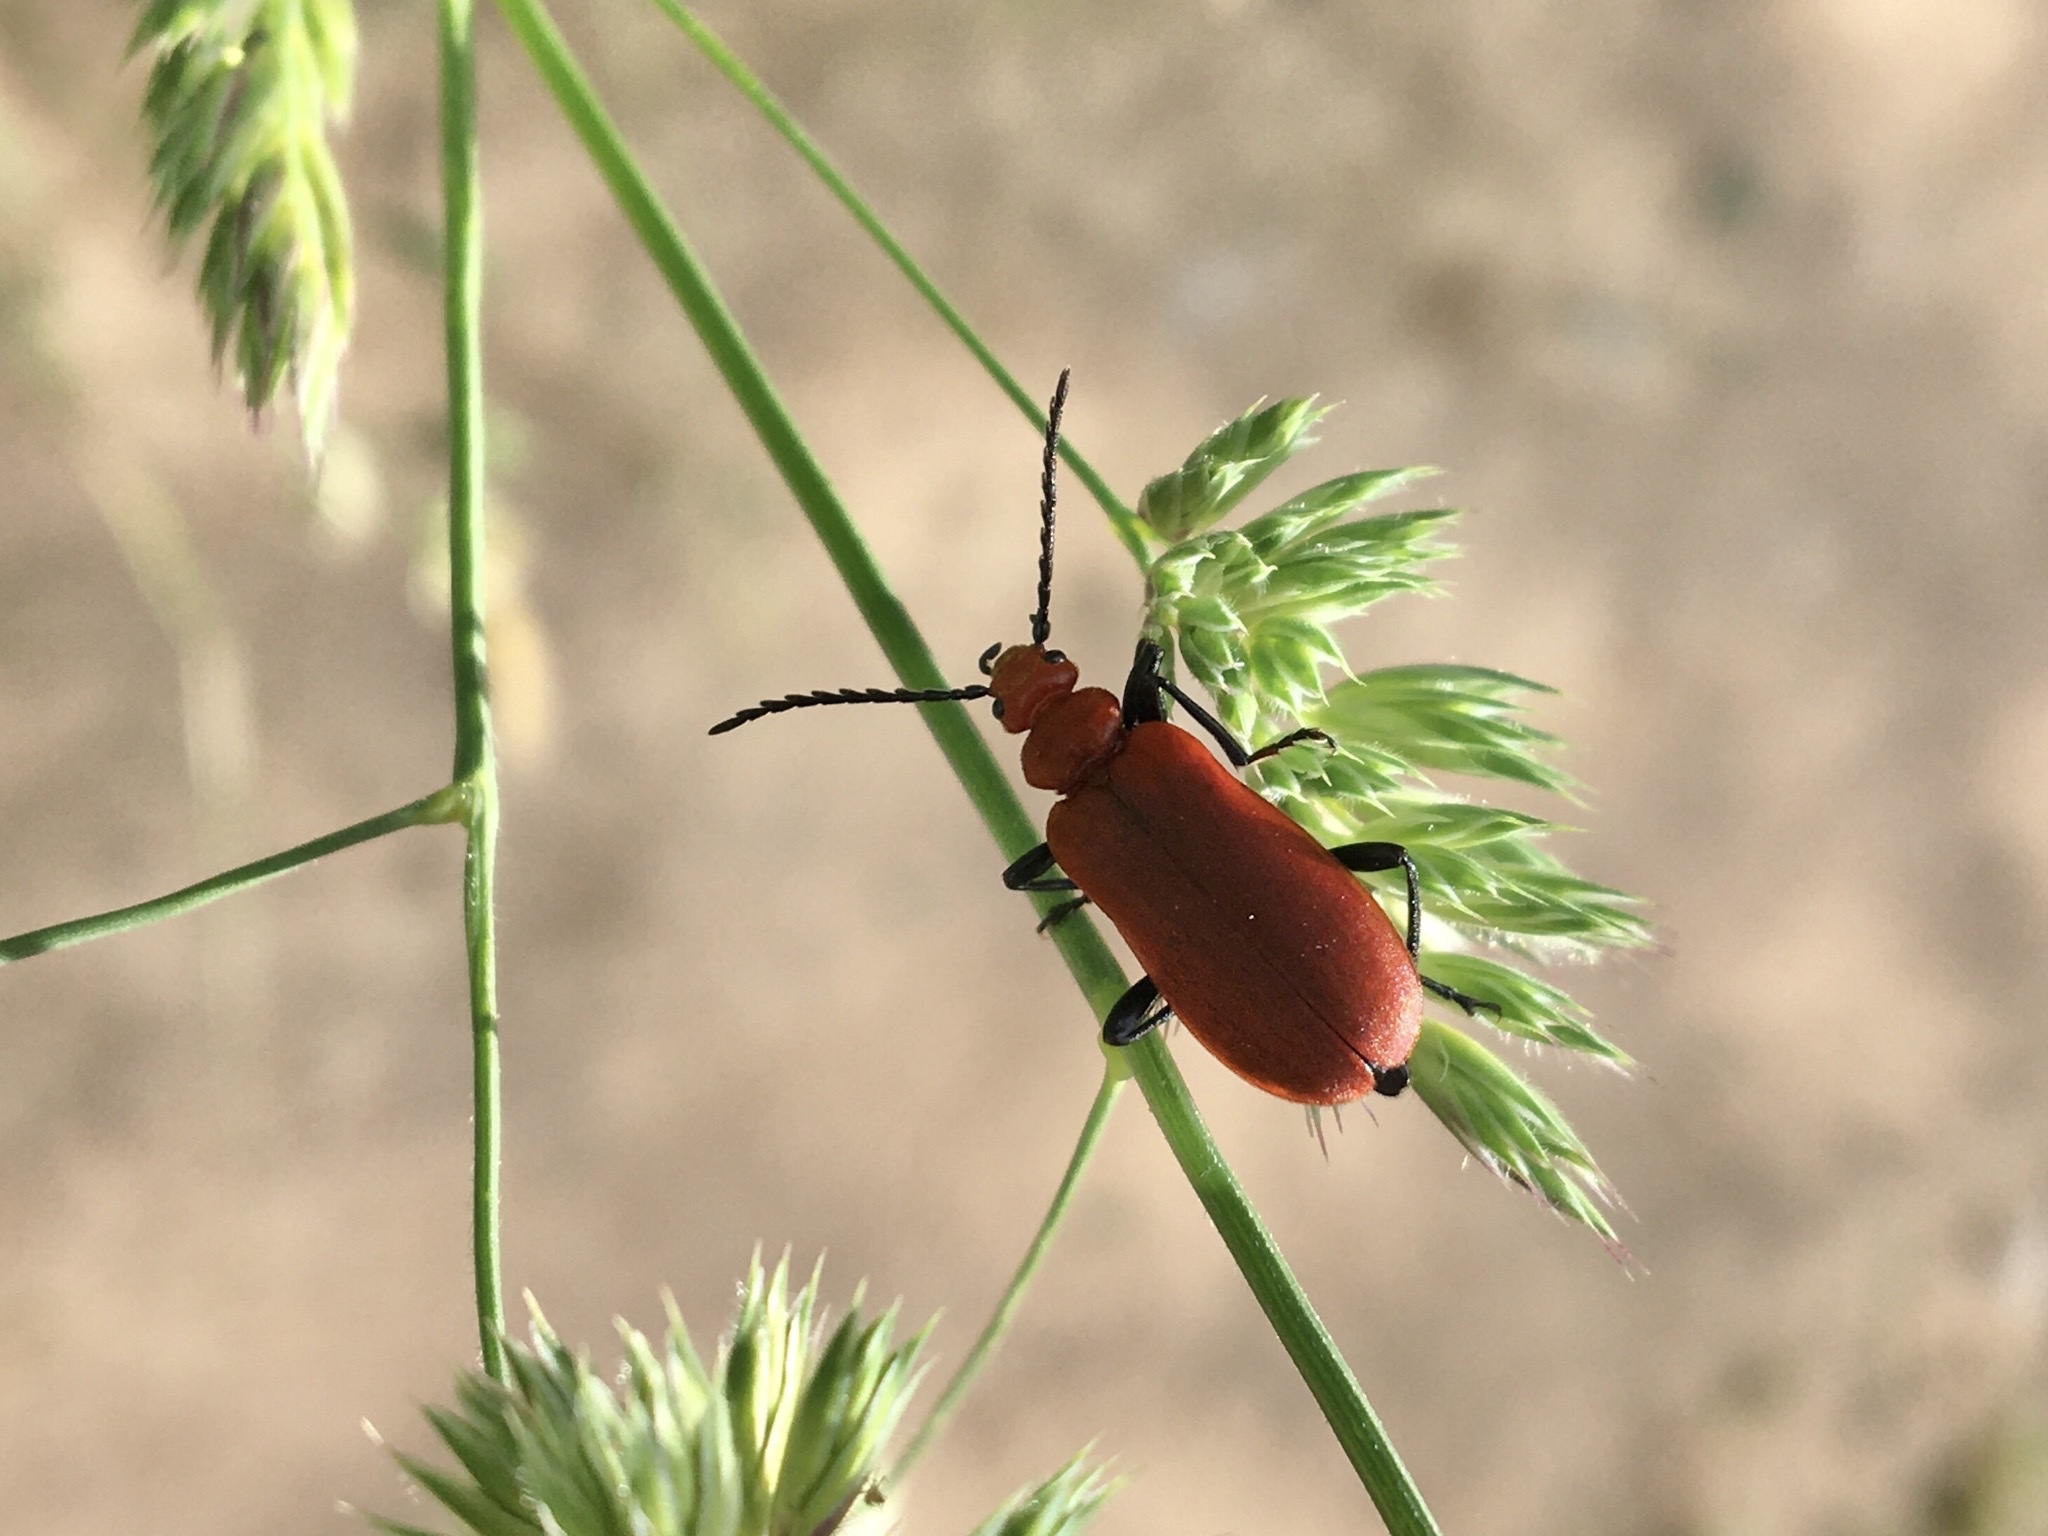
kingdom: Animalia
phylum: Arthropoda
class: Insecta
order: Coleoptera
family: Pyrochroidae
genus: Pyrochroa
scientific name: Pyrochroa serraticornis
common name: Red-headed cardinal beetle
